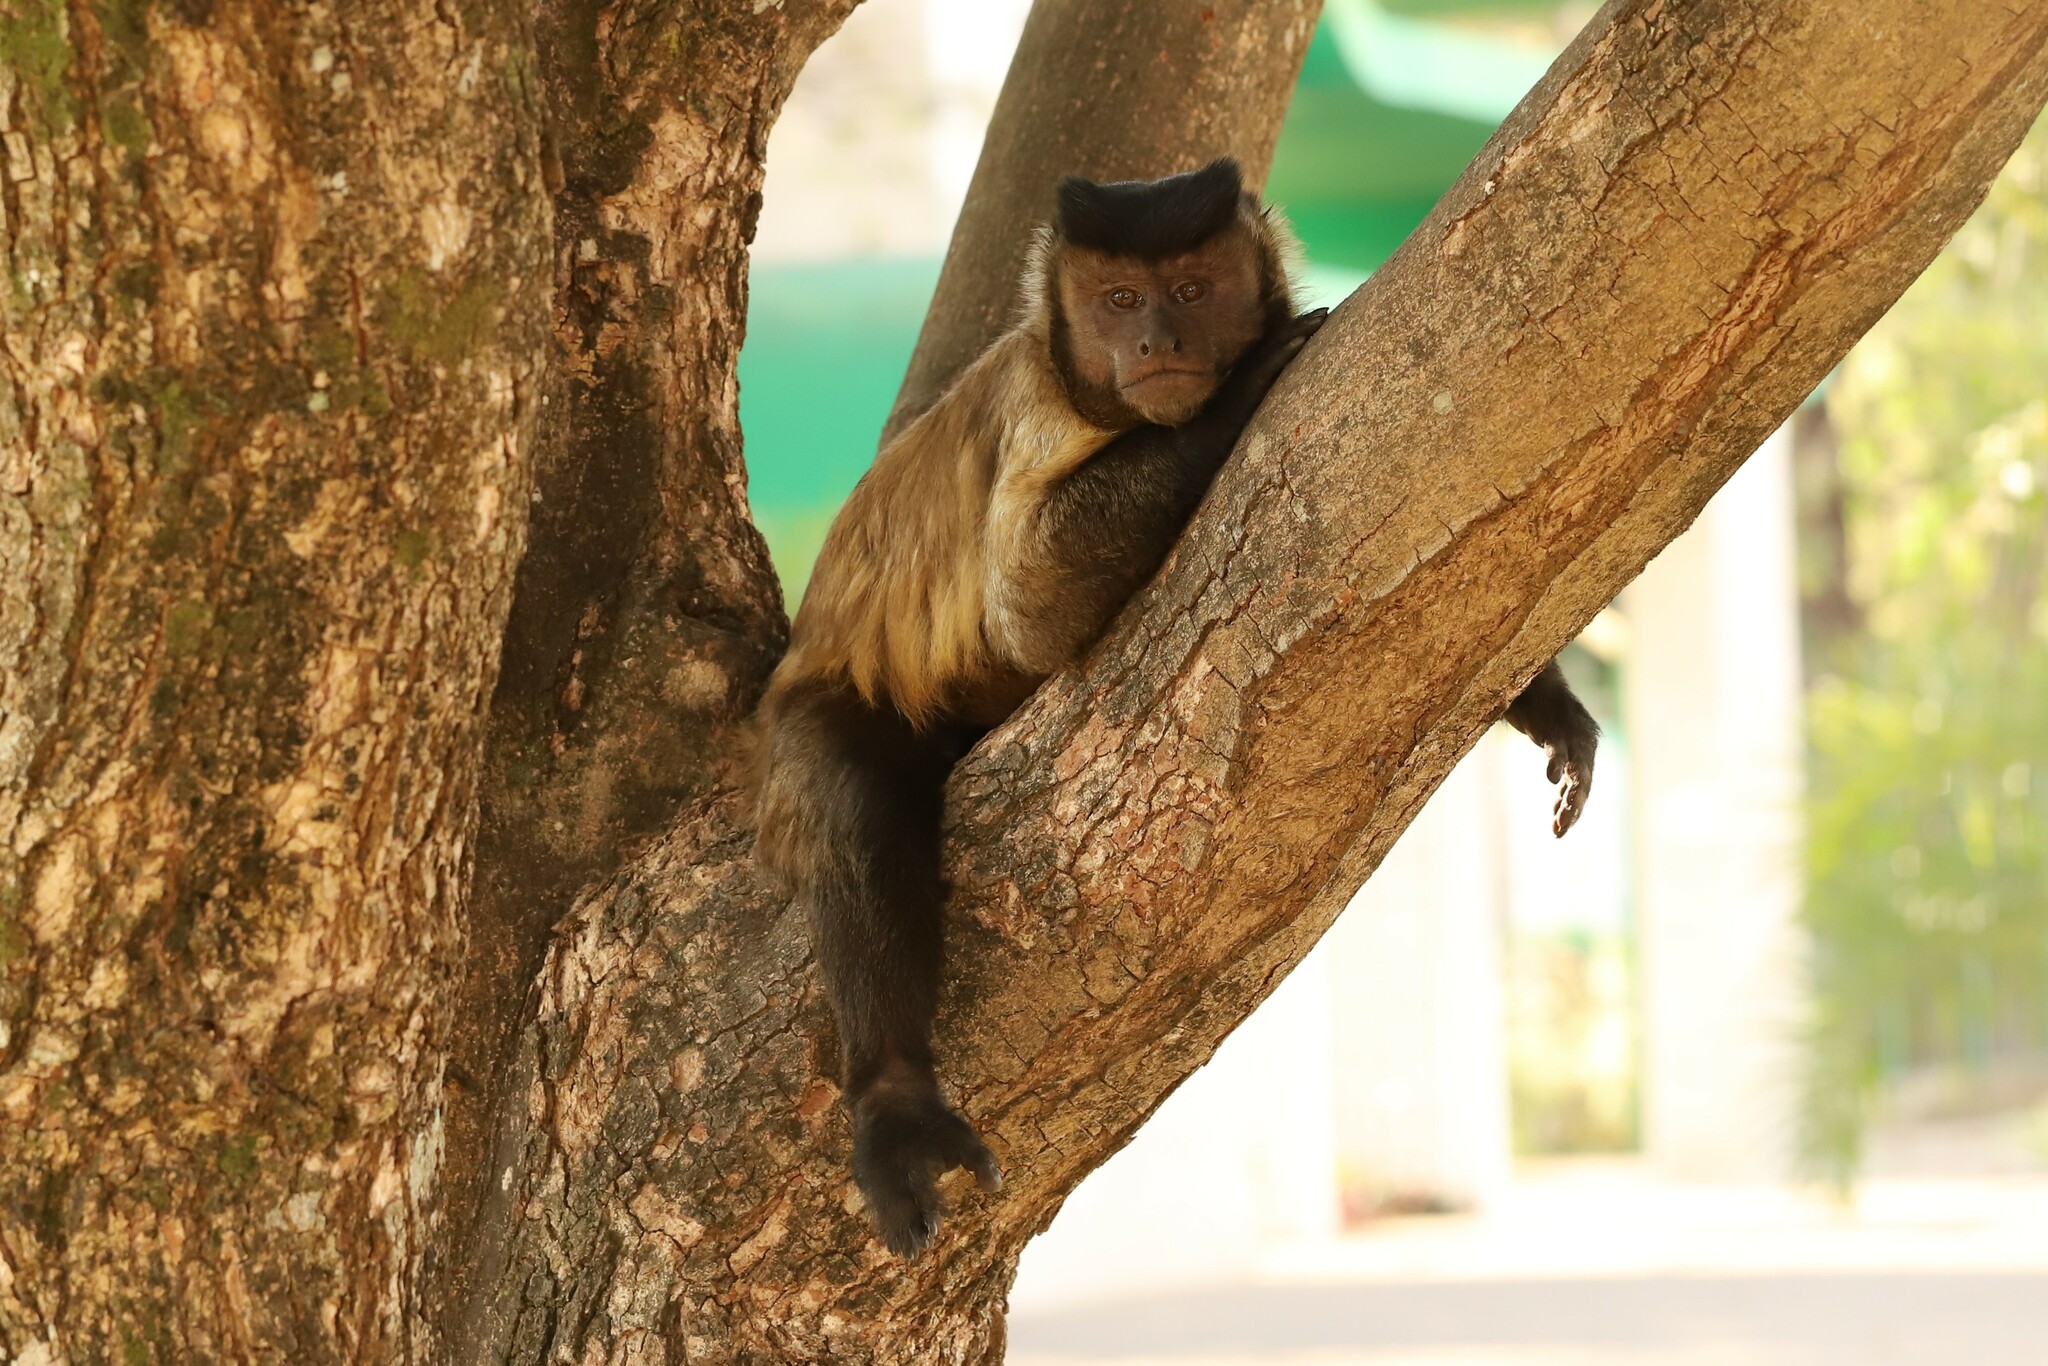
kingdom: Animalia
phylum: Chordata
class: Mammalia
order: Primates
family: Cebidae
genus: Sapajus
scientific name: Sapajus apella
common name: Tufted capuchin
